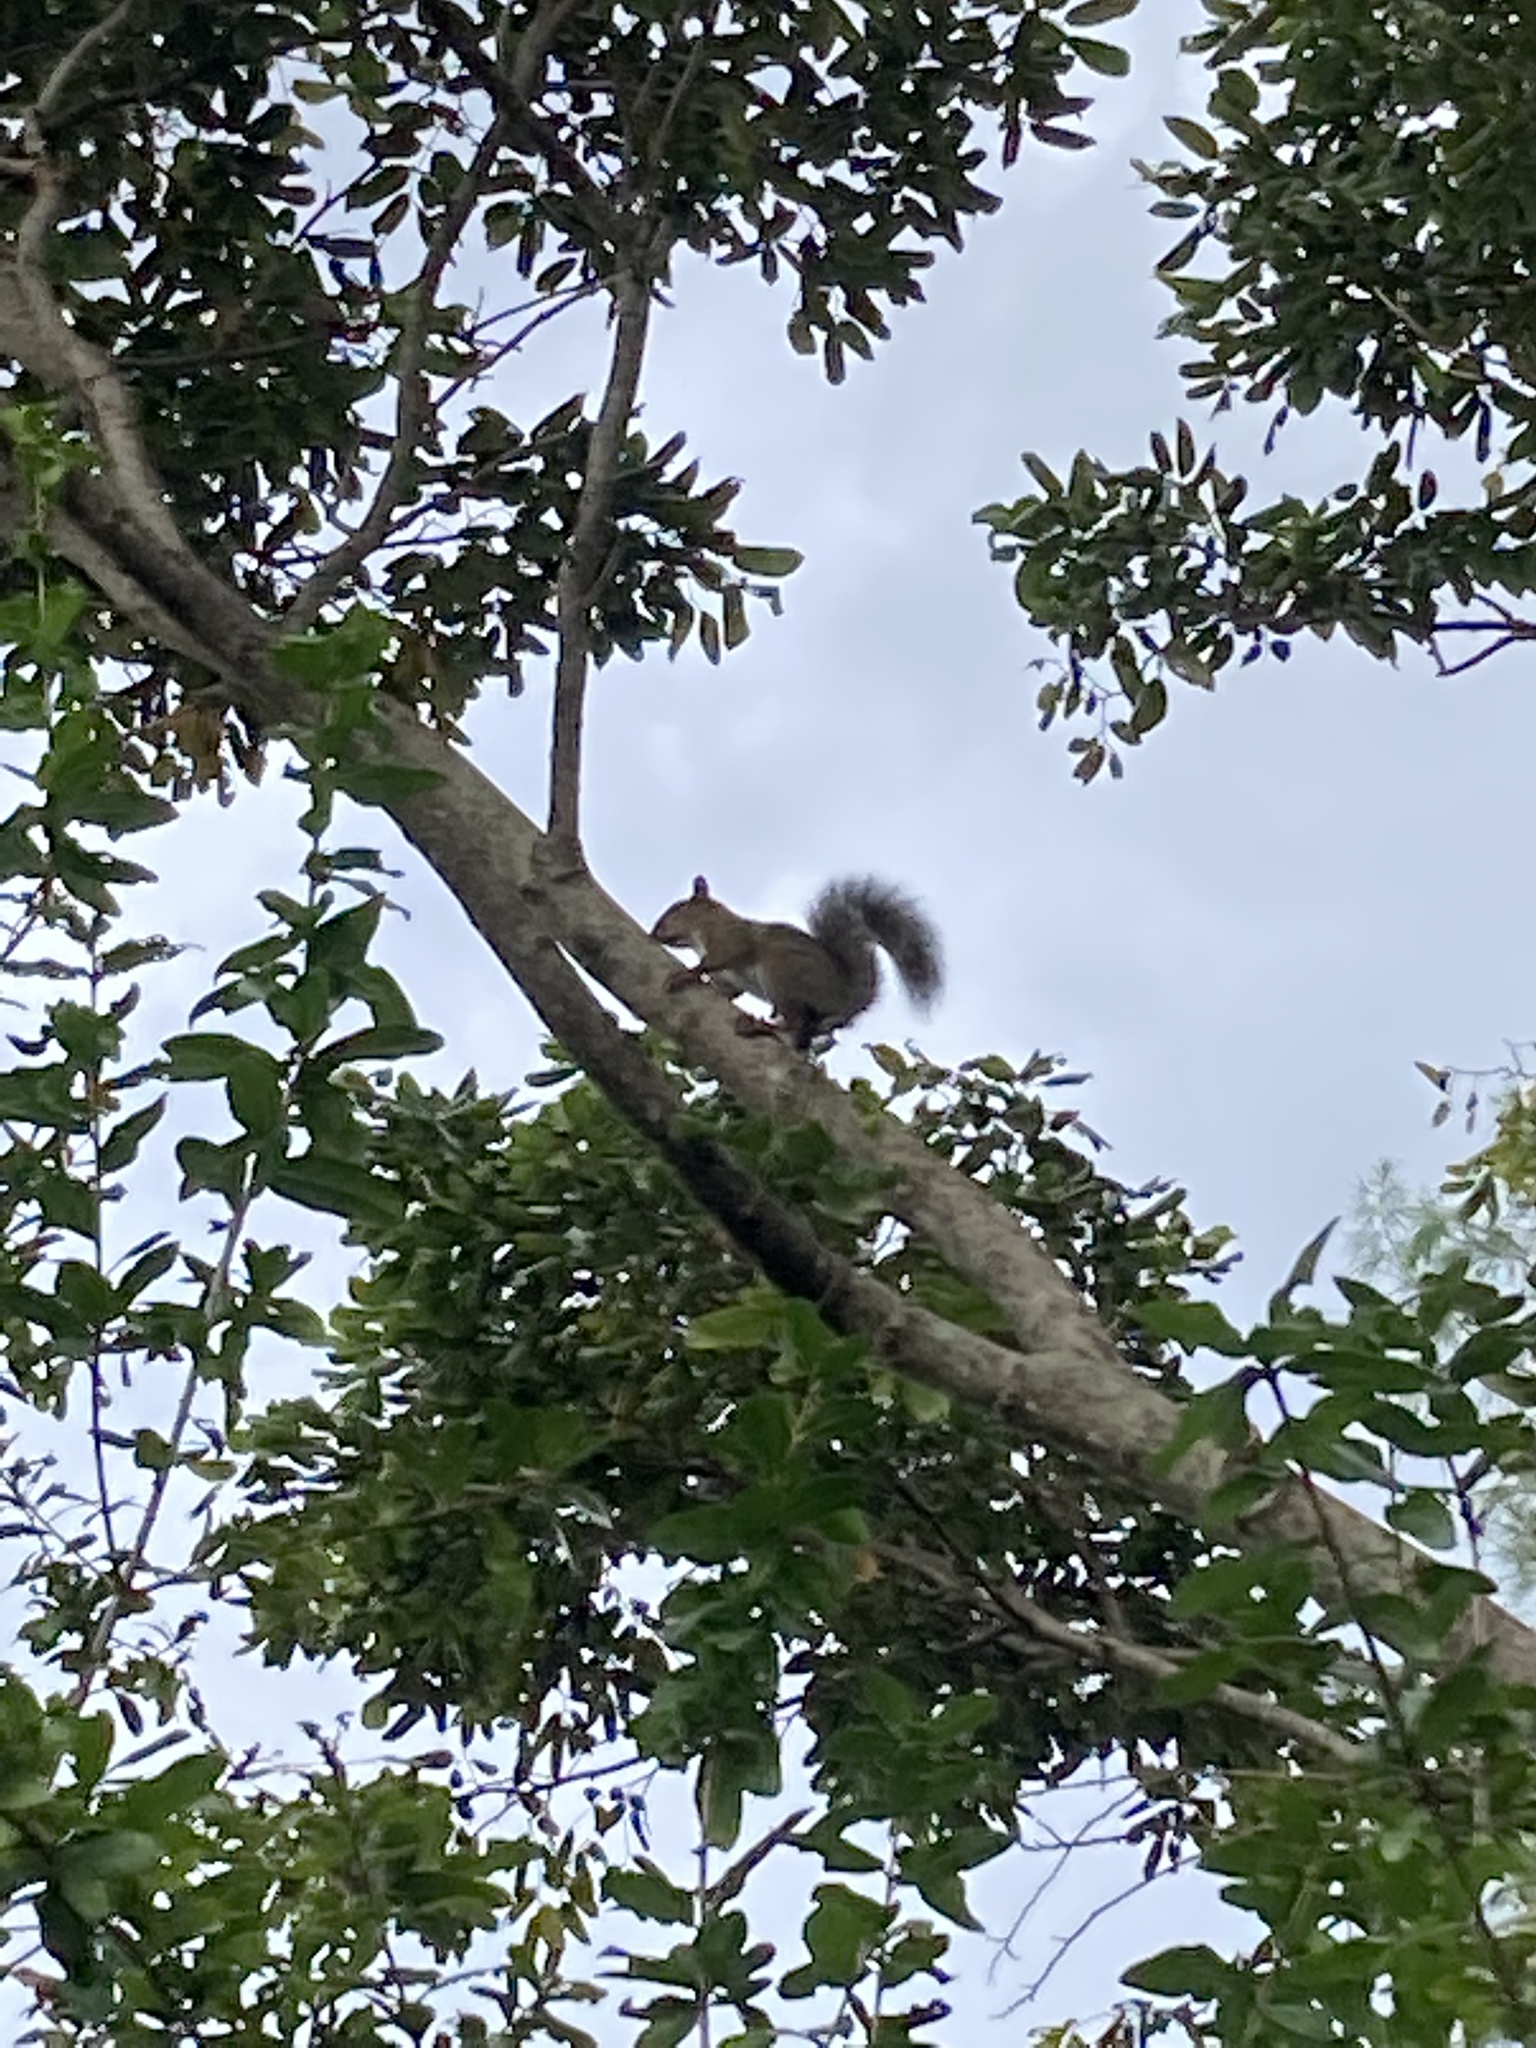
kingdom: Animalia
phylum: Chordata
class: Mammalia
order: Rodentia
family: Sciuridae
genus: Sciurus
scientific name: Sciurus carolinensis
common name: Eastern gray squirrel
